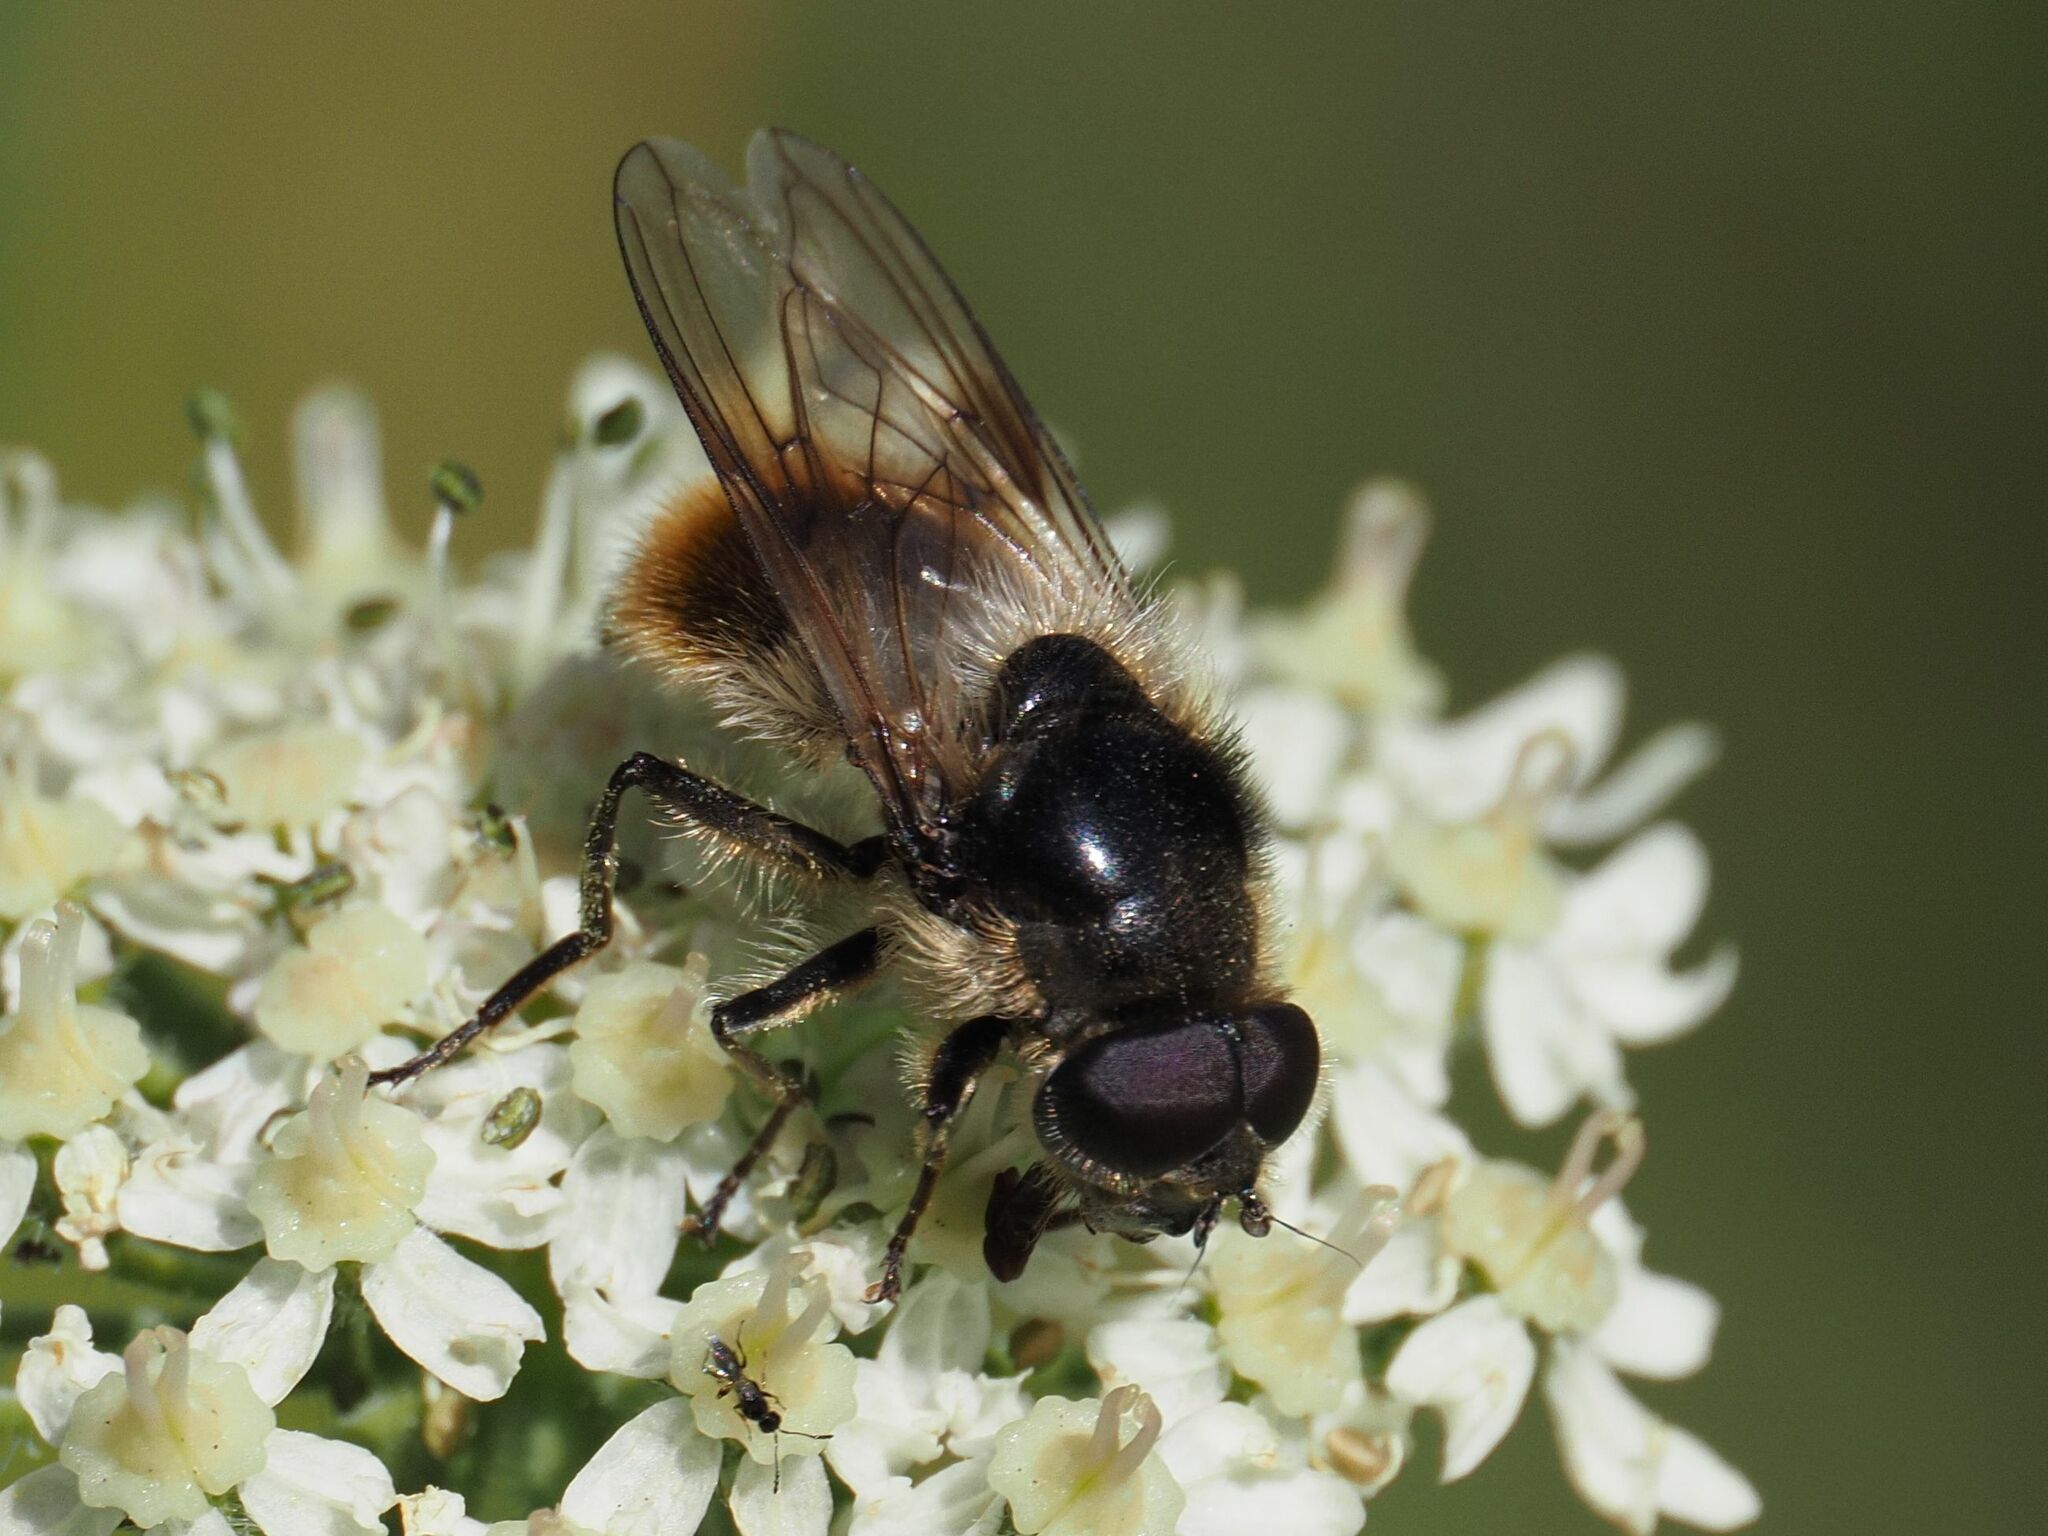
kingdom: Animalia
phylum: Arthropoda
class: Insecta
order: Diptera
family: Syrphidae
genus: Cheilosia
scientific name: Cheilosia illustrata
